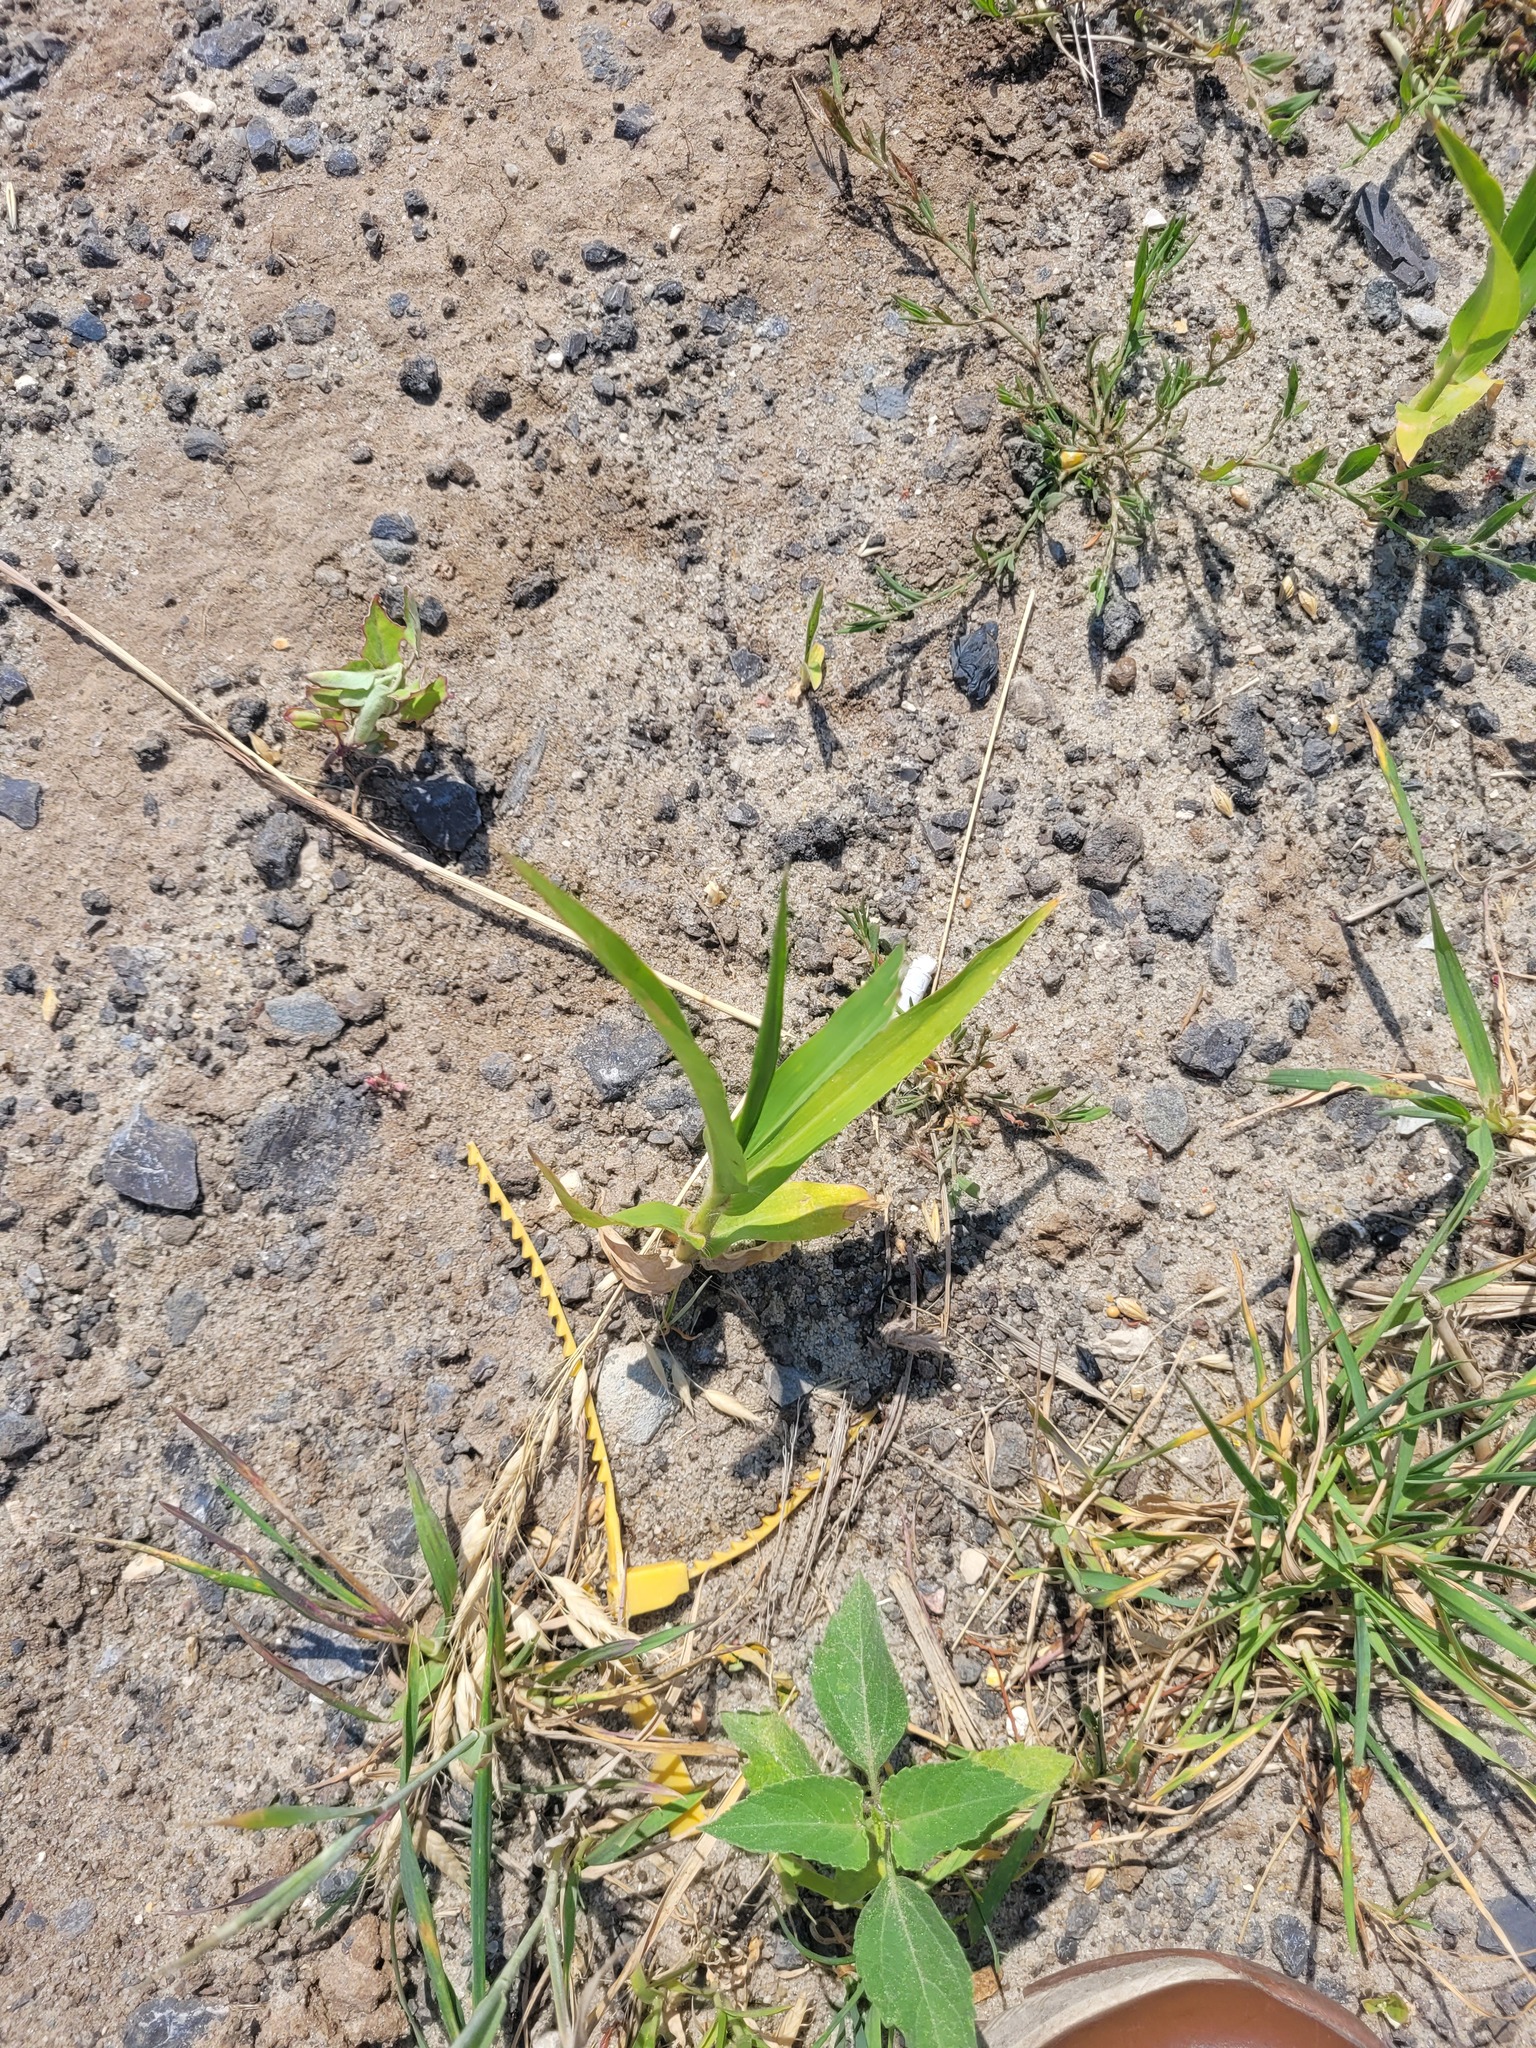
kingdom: Plantae
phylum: Tracheophyta
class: Liliopsida
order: Poales
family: Poaceae
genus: Zea
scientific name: Zea mays
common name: Maize
